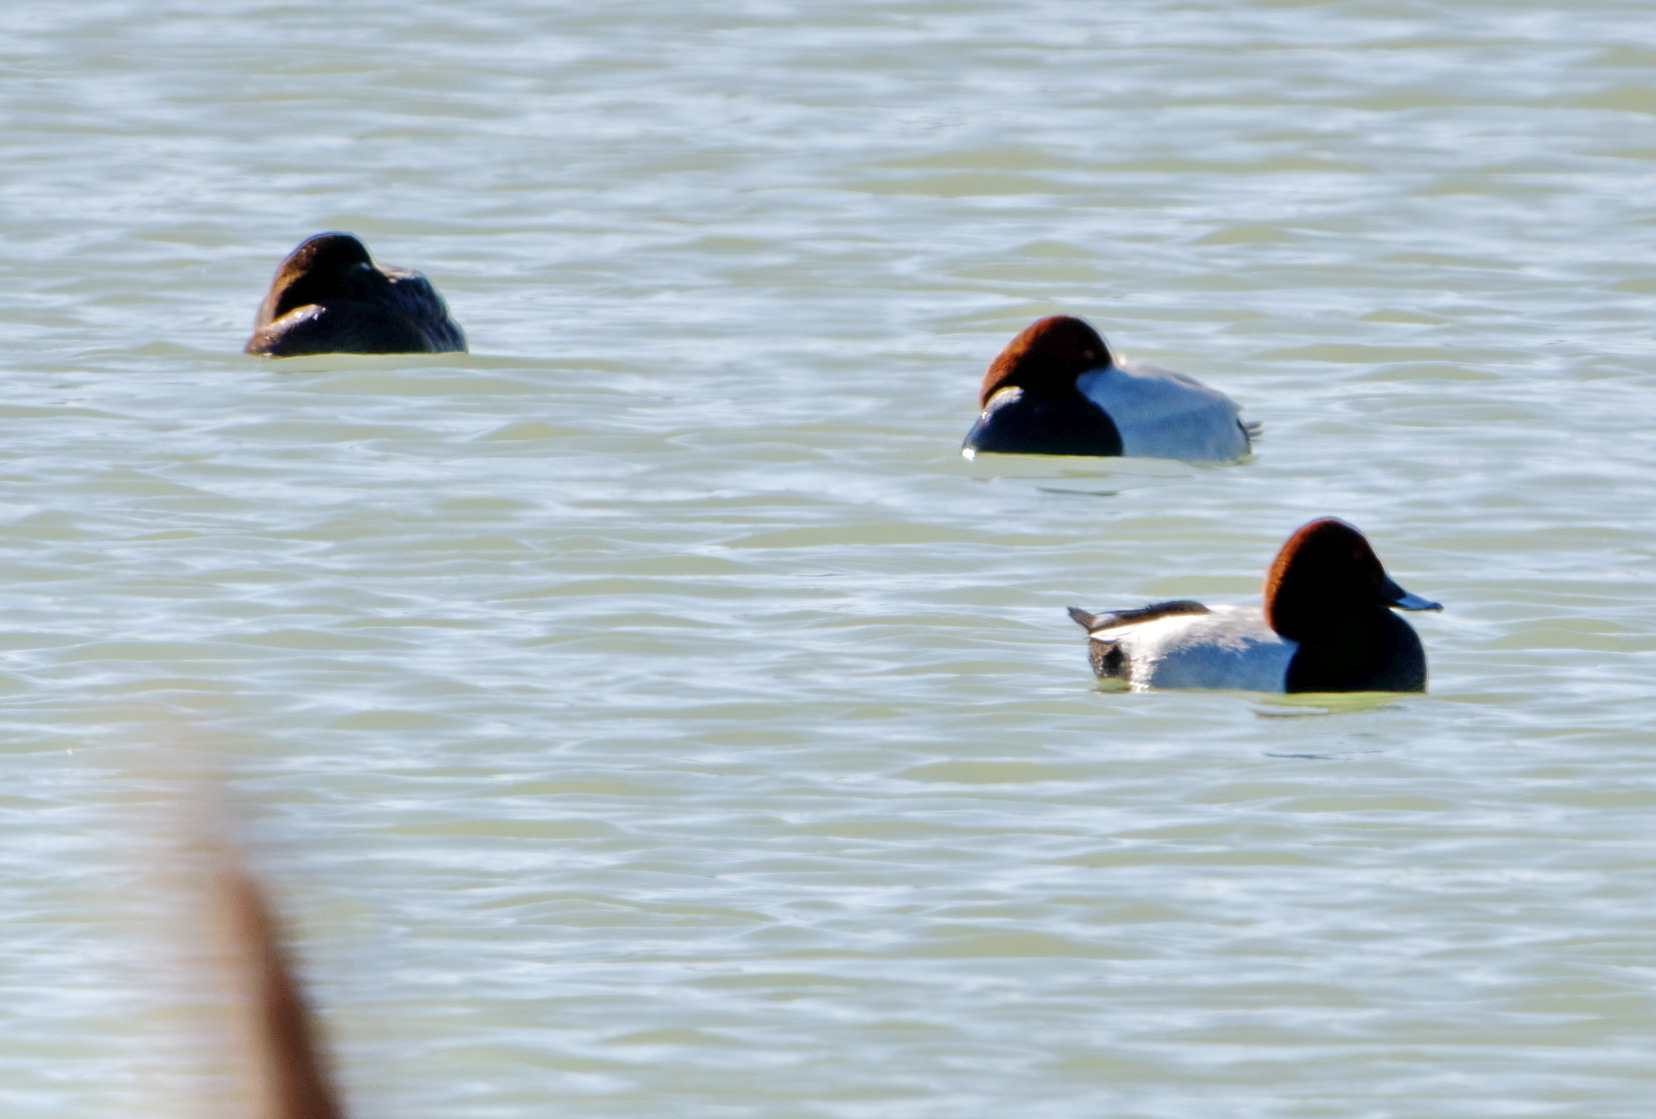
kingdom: Animalia
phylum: Chordata
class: Aves
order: Anseriformes
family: Anatidae
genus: Aythya
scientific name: Aythya ferina
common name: Common pochard
